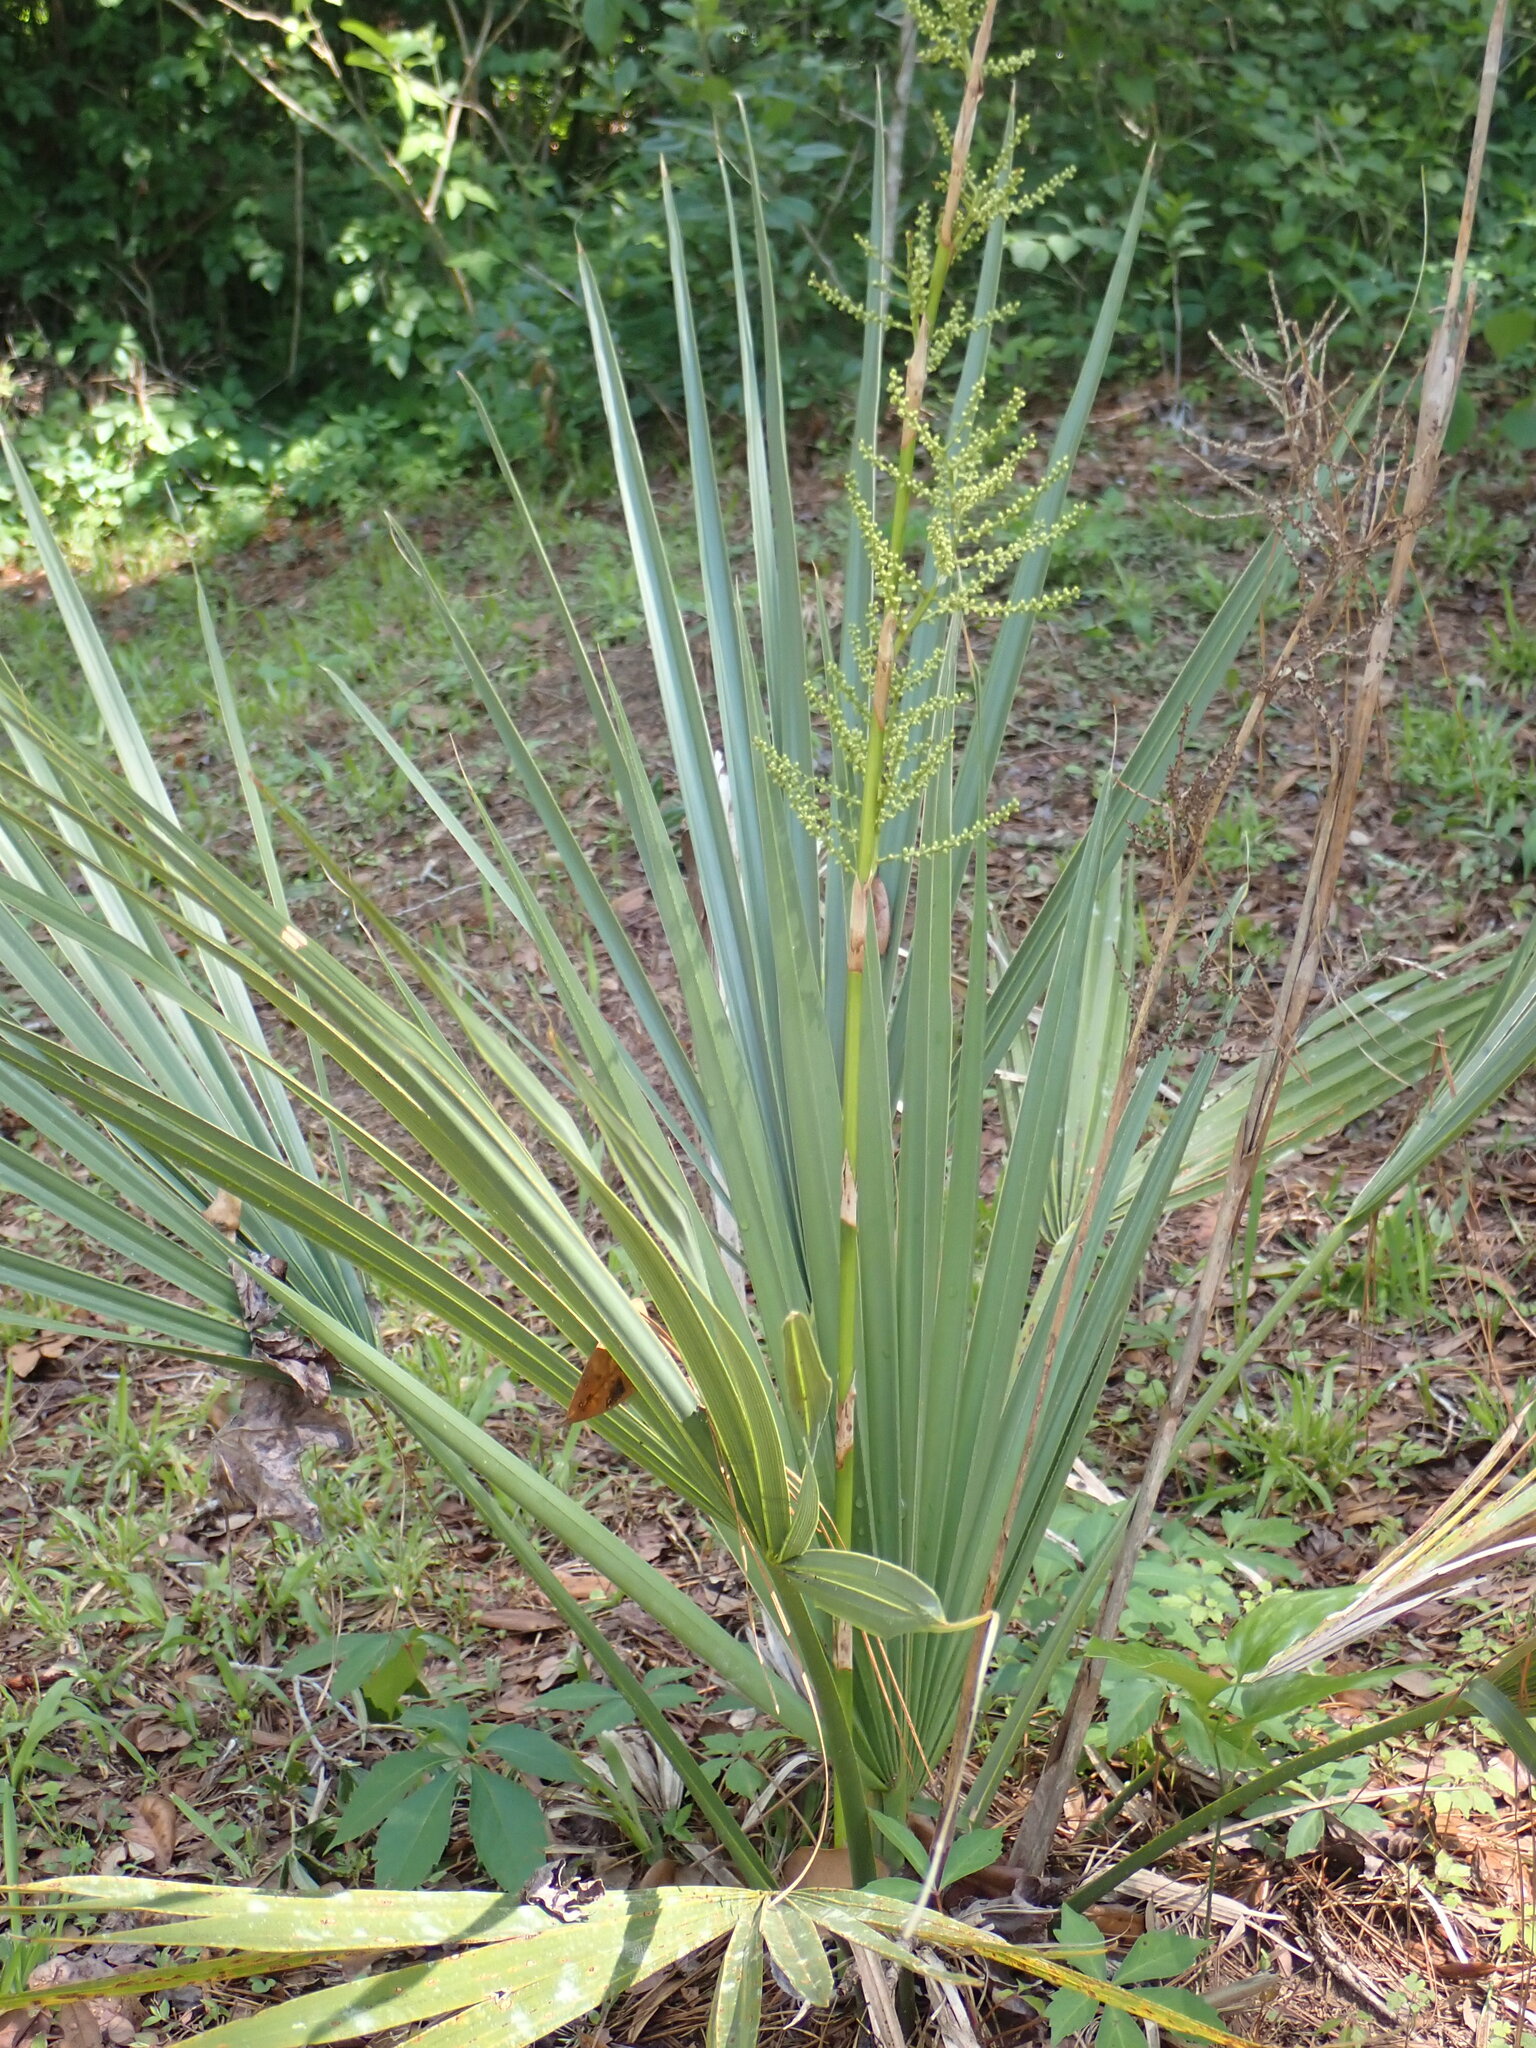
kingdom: Plantae
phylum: Tracheophyta
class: Liliopsida
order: Arecales
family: Arecaceae
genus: Serenoa
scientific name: Serenoa repens
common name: Saw-palmetto
